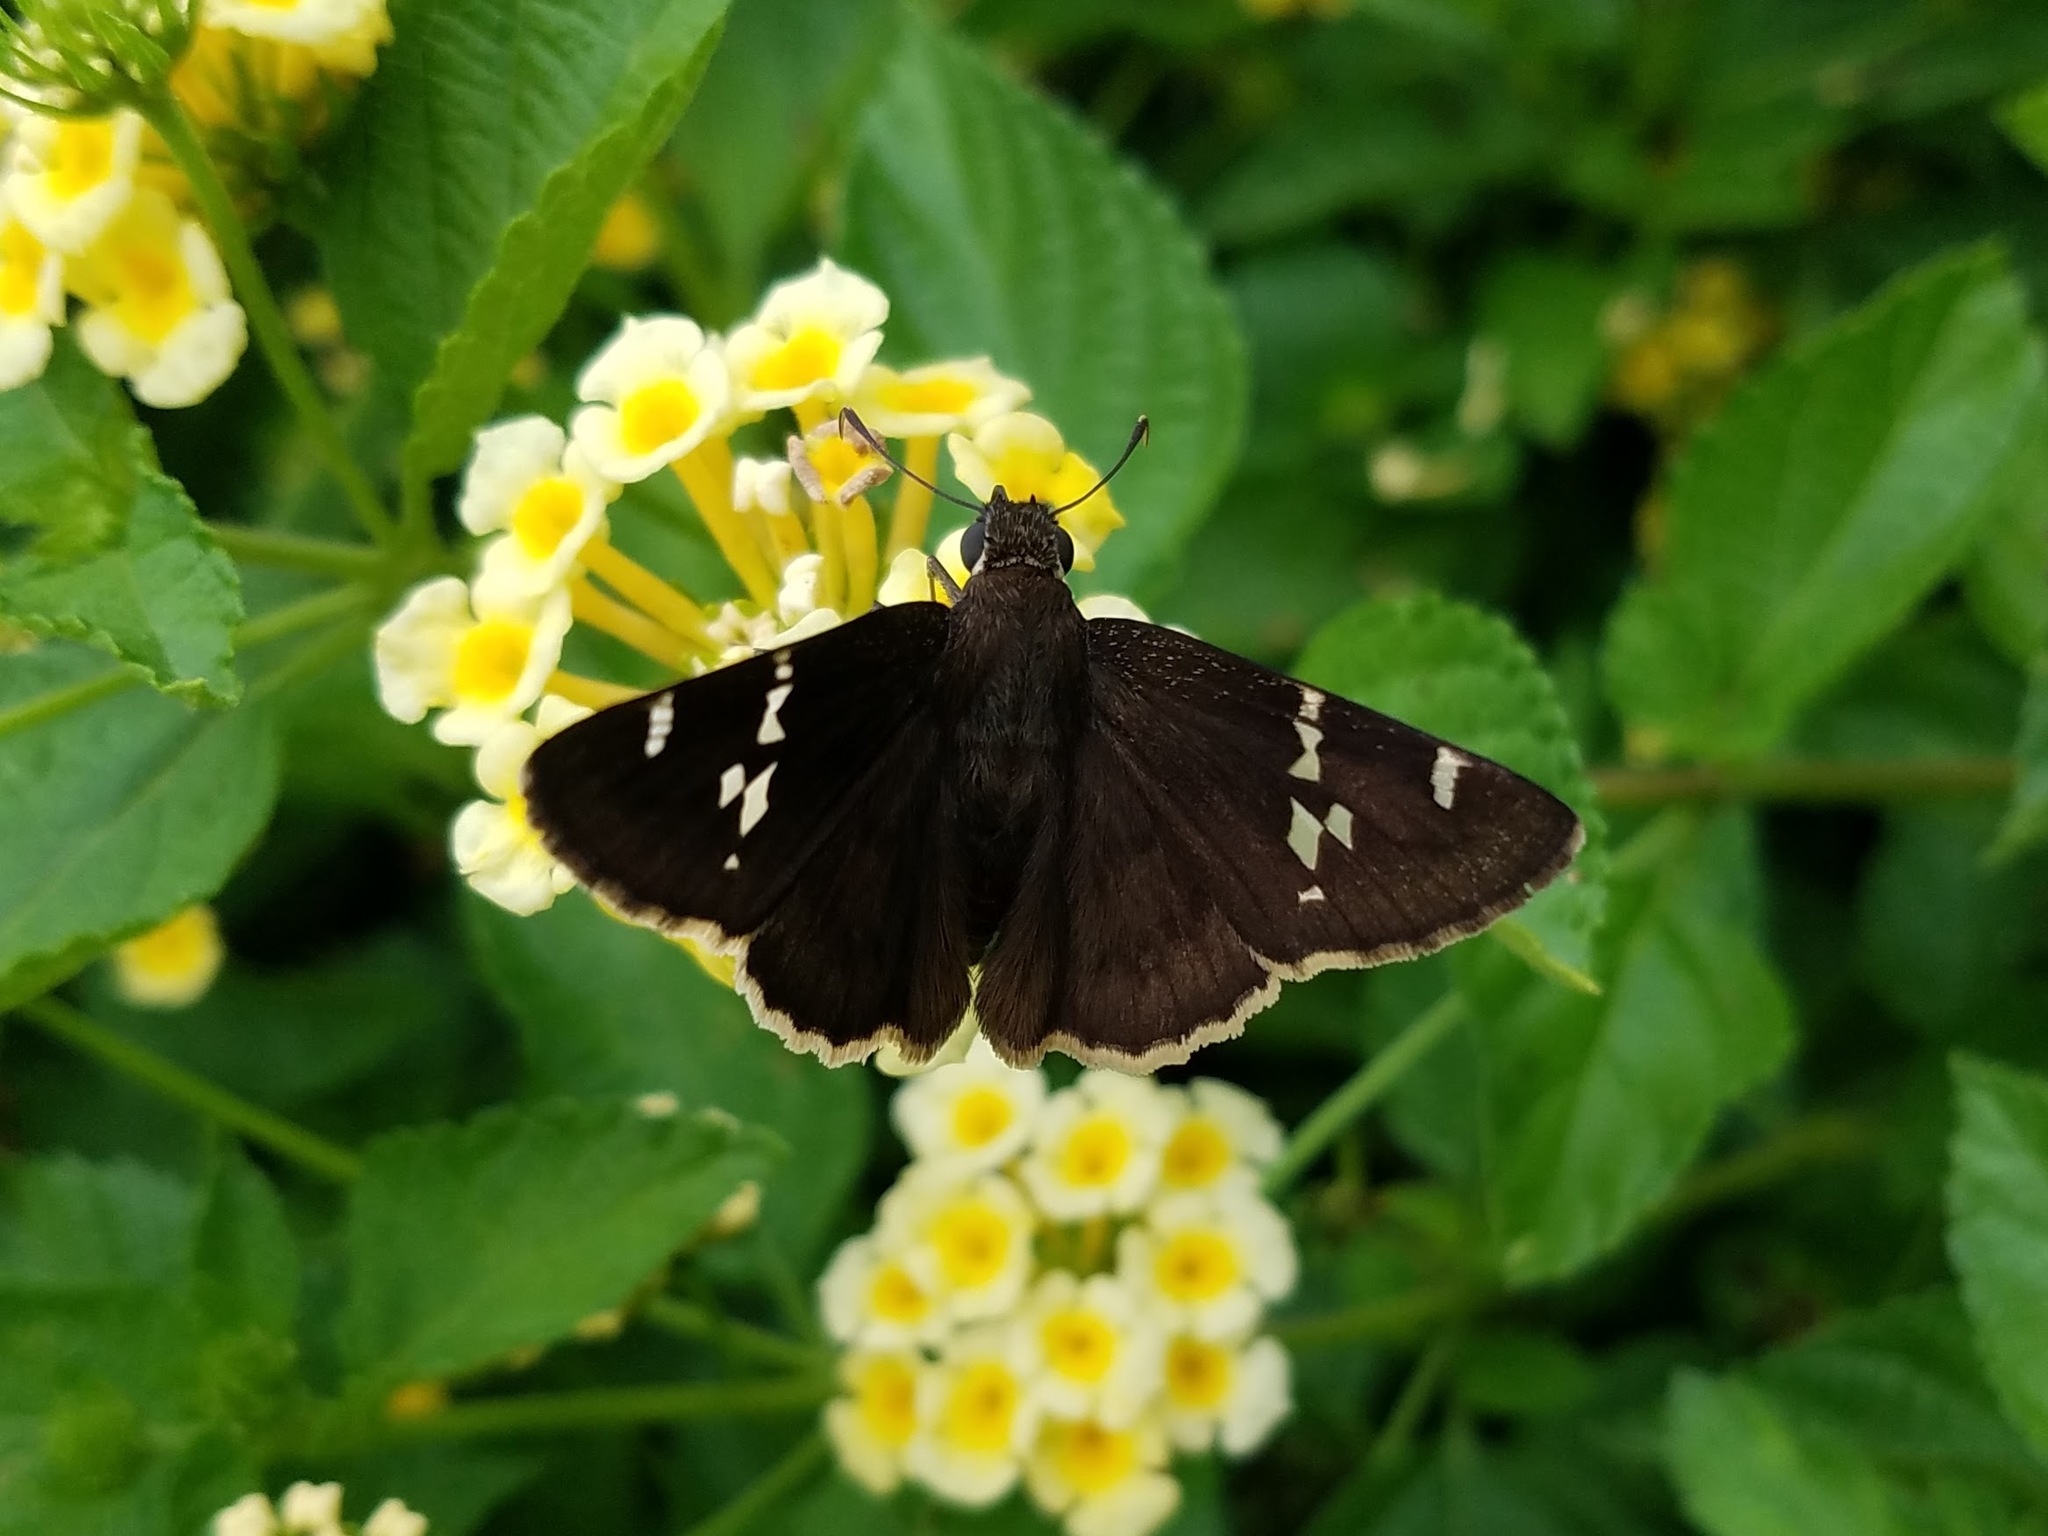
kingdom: Animalia
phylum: Arthropoda
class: Insecta
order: Lepidoptera
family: Hesperiidae
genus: Thorybes
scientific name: Thorybes daunus
